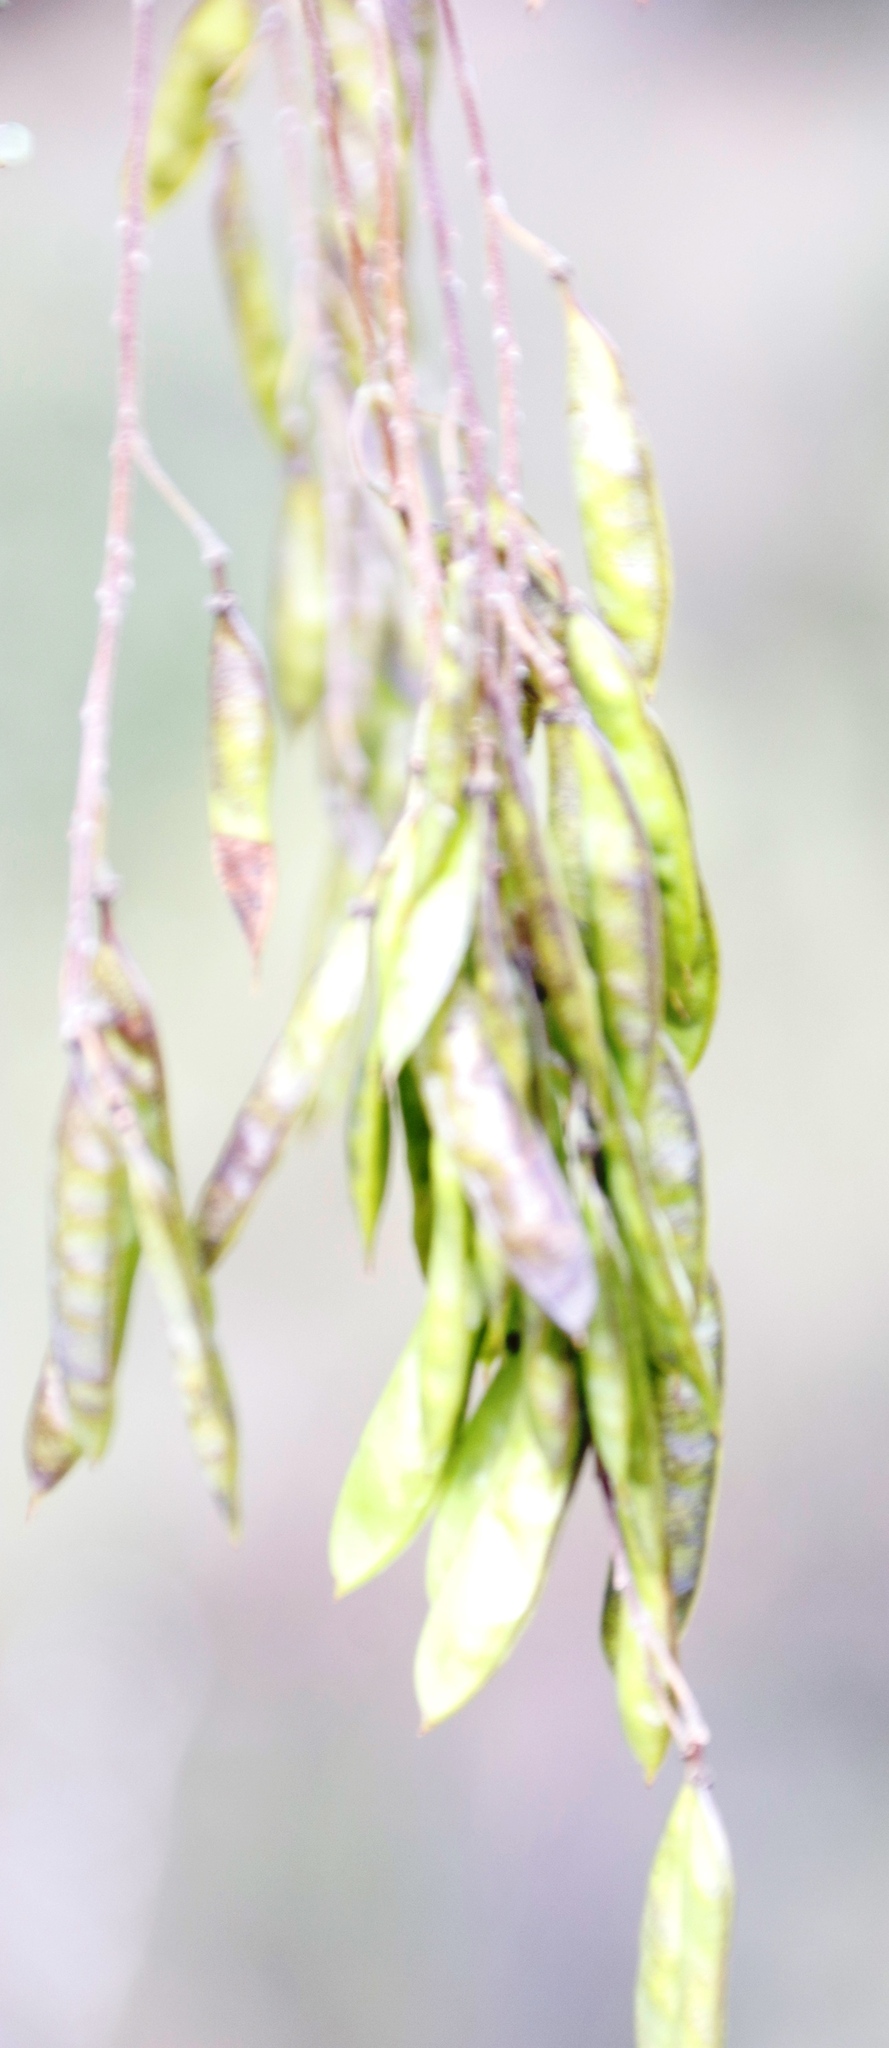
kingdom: Plantae
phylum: Tracheophyta
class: Magnoliopsida
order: Fabales
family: Fabaceae
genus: Calpurnia
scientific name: Calpurnia sericea
